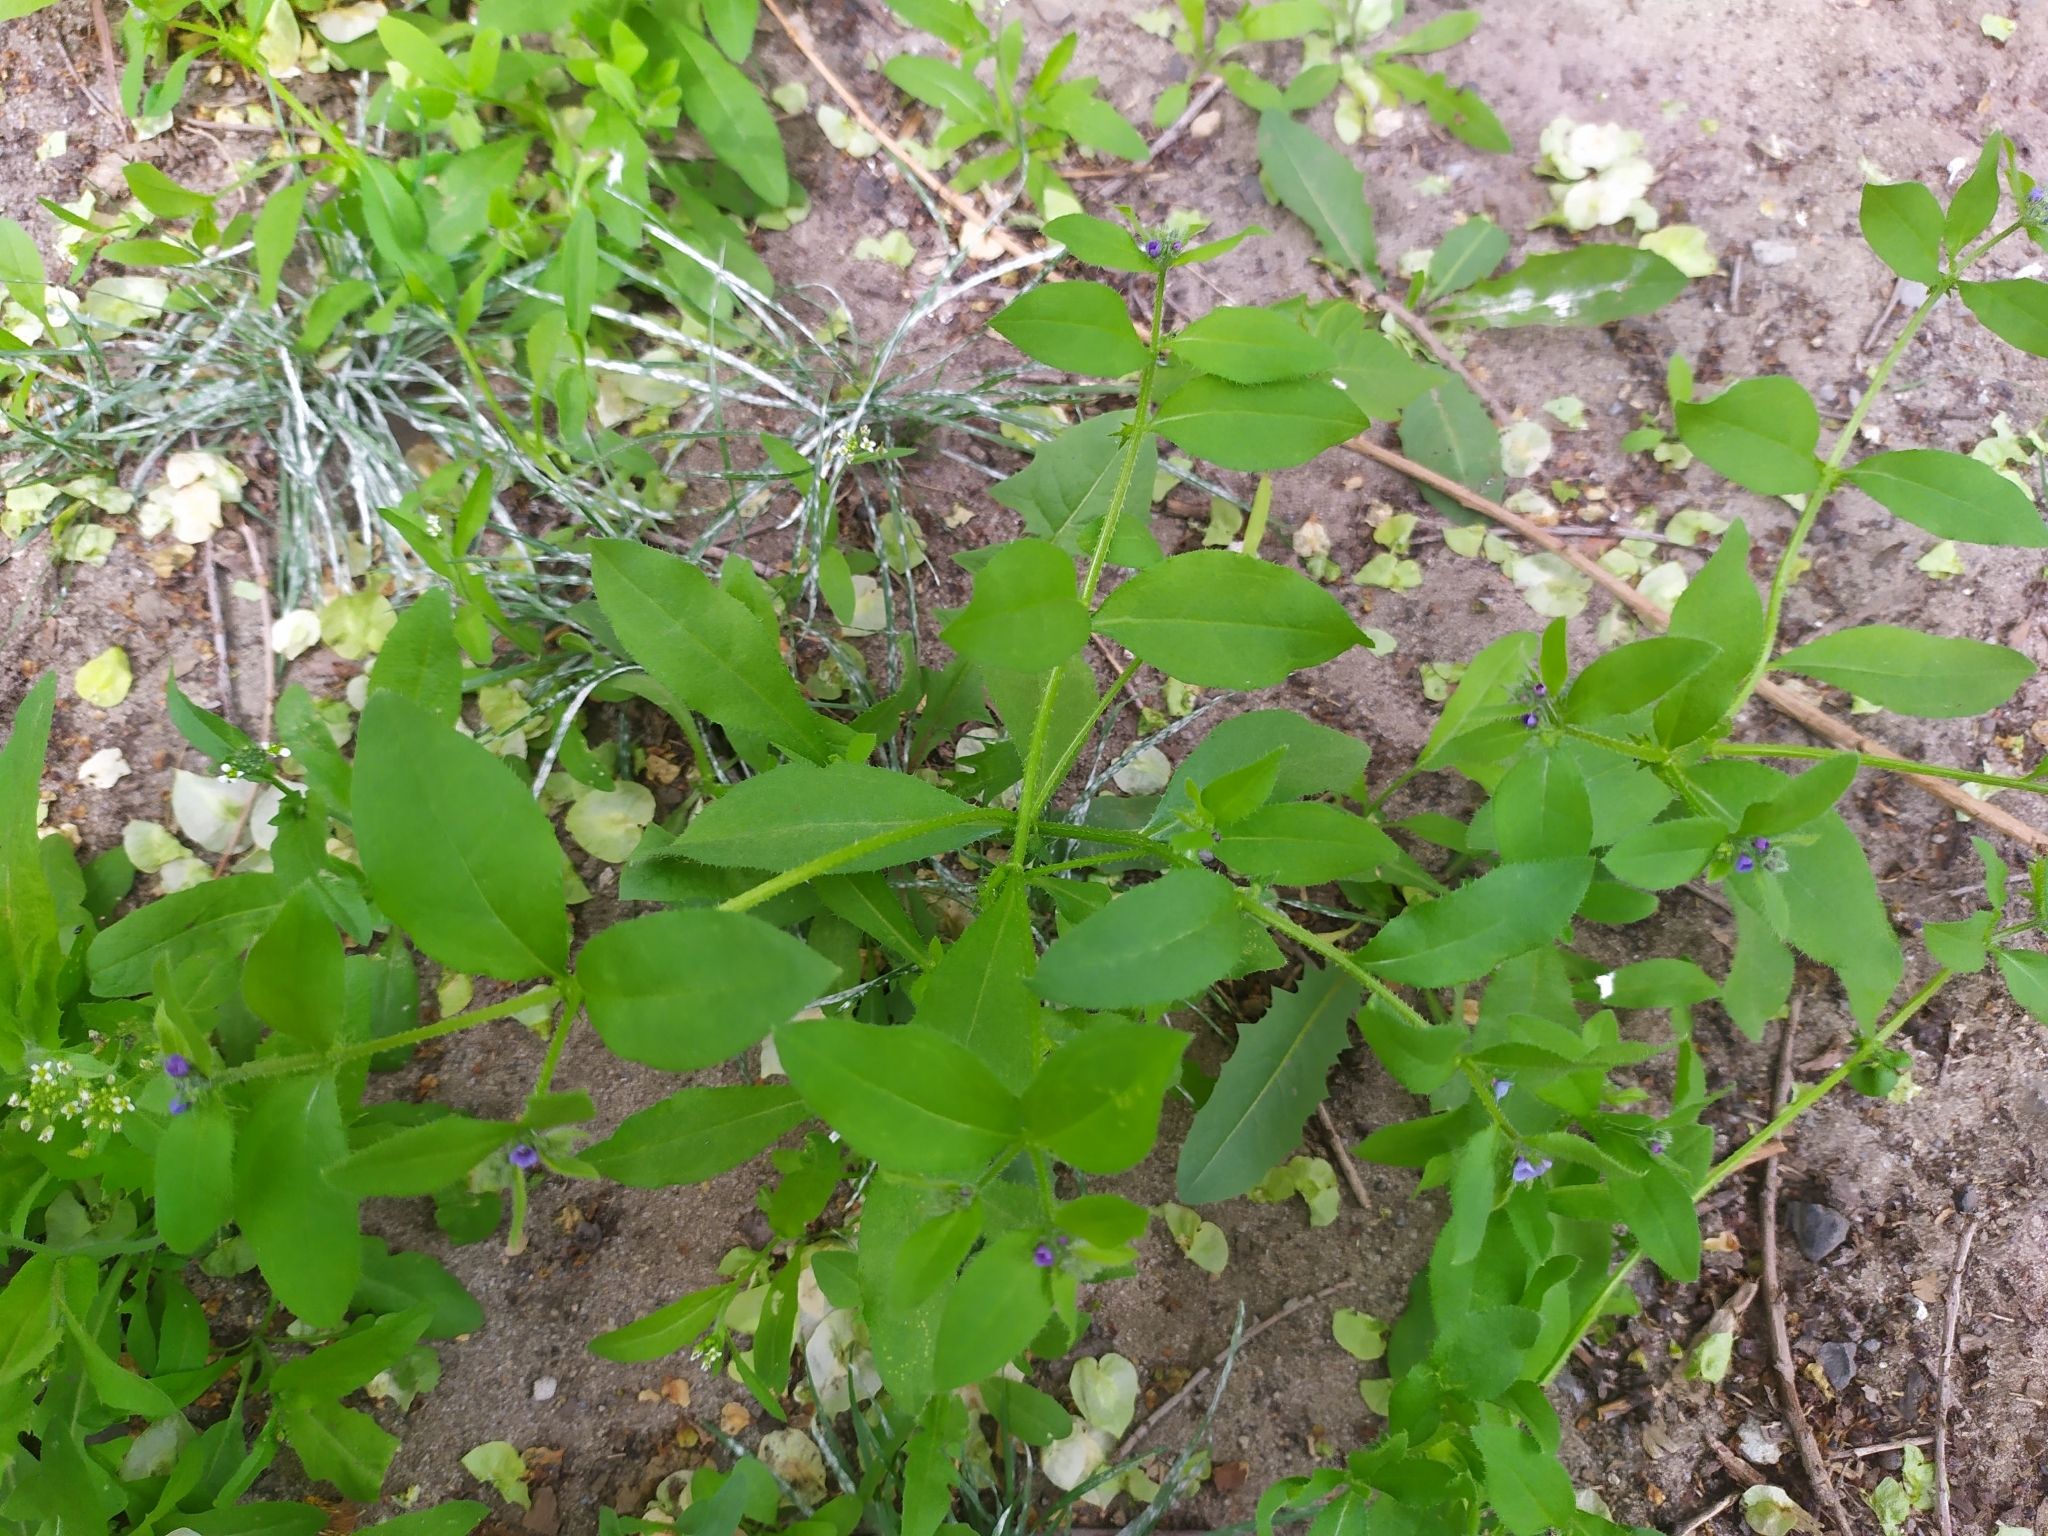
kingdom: Plantae
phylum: Tracheophyta
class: Magnoliopsida
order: Boraginales
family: Boraginaceae
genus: Asperugo
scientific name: Asperugo procumbens
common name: Madwort
